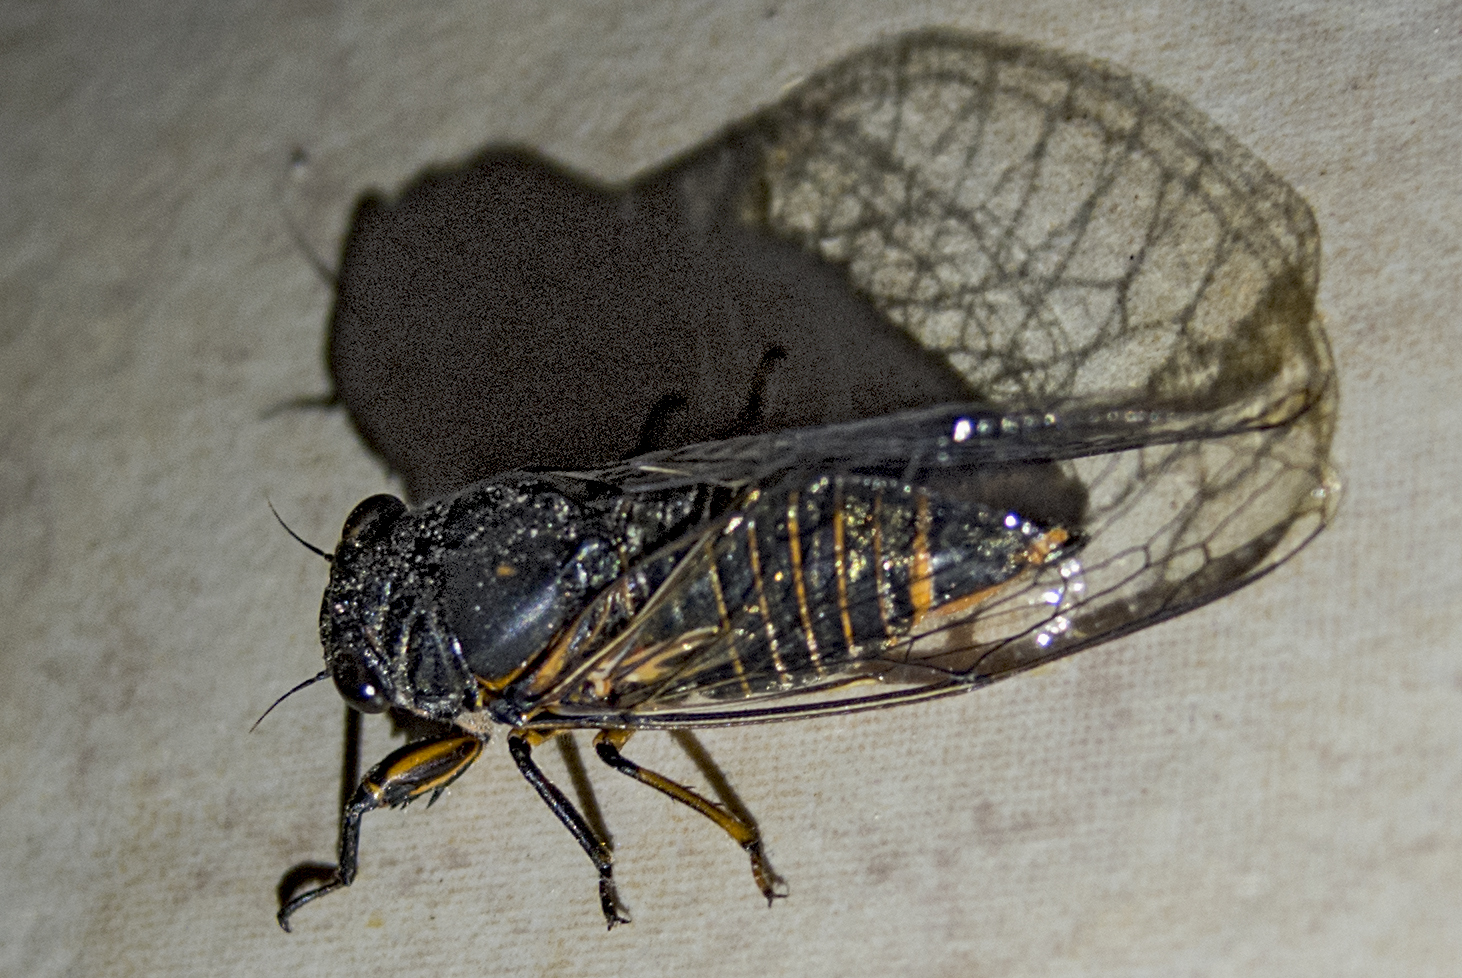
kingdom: Animalia
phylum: Arthropoda
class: Insecta
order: Hemiptera
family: Cicadidae
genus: Dimissalna
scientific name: Dimissalna dimissa
